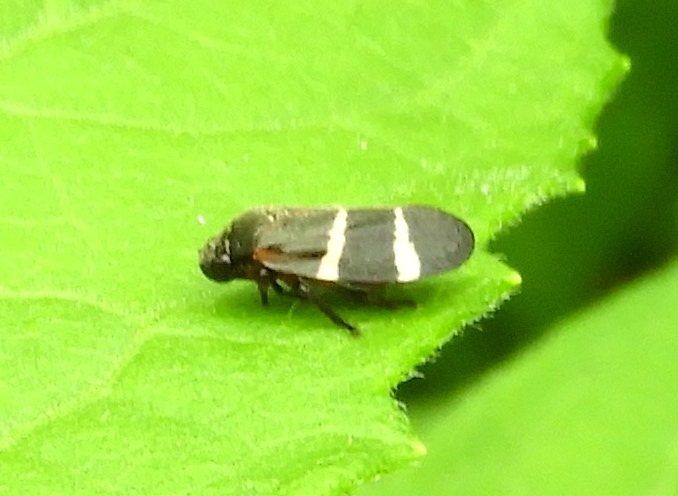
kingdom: Animalia
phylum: Arthropoda
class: Insecta
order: Hemiptera
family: Cercopidae
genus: Aeneolamia
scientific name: Aeneolamia albofasciata
